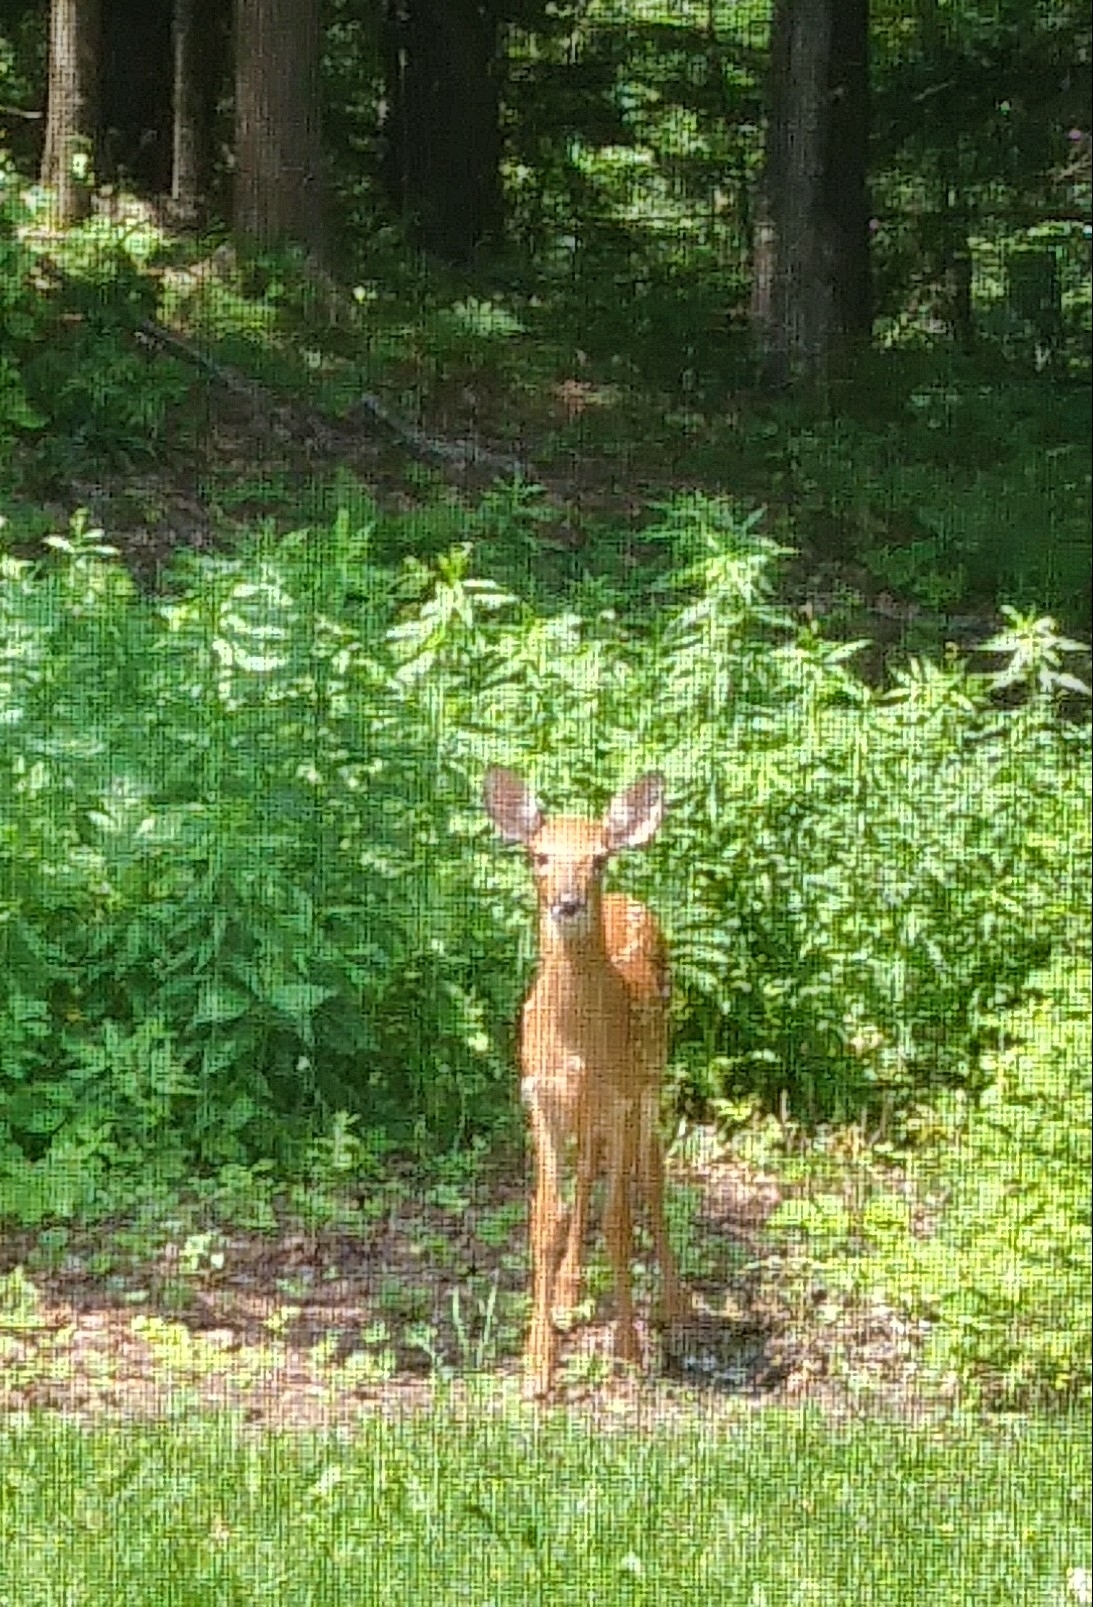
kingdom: Animalia
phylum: Chordata
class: Mammalia
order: Artiodactyla
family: Cervidae
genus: Odocoileus
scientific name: Odocoileus virginianus
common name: White-tailed deer
